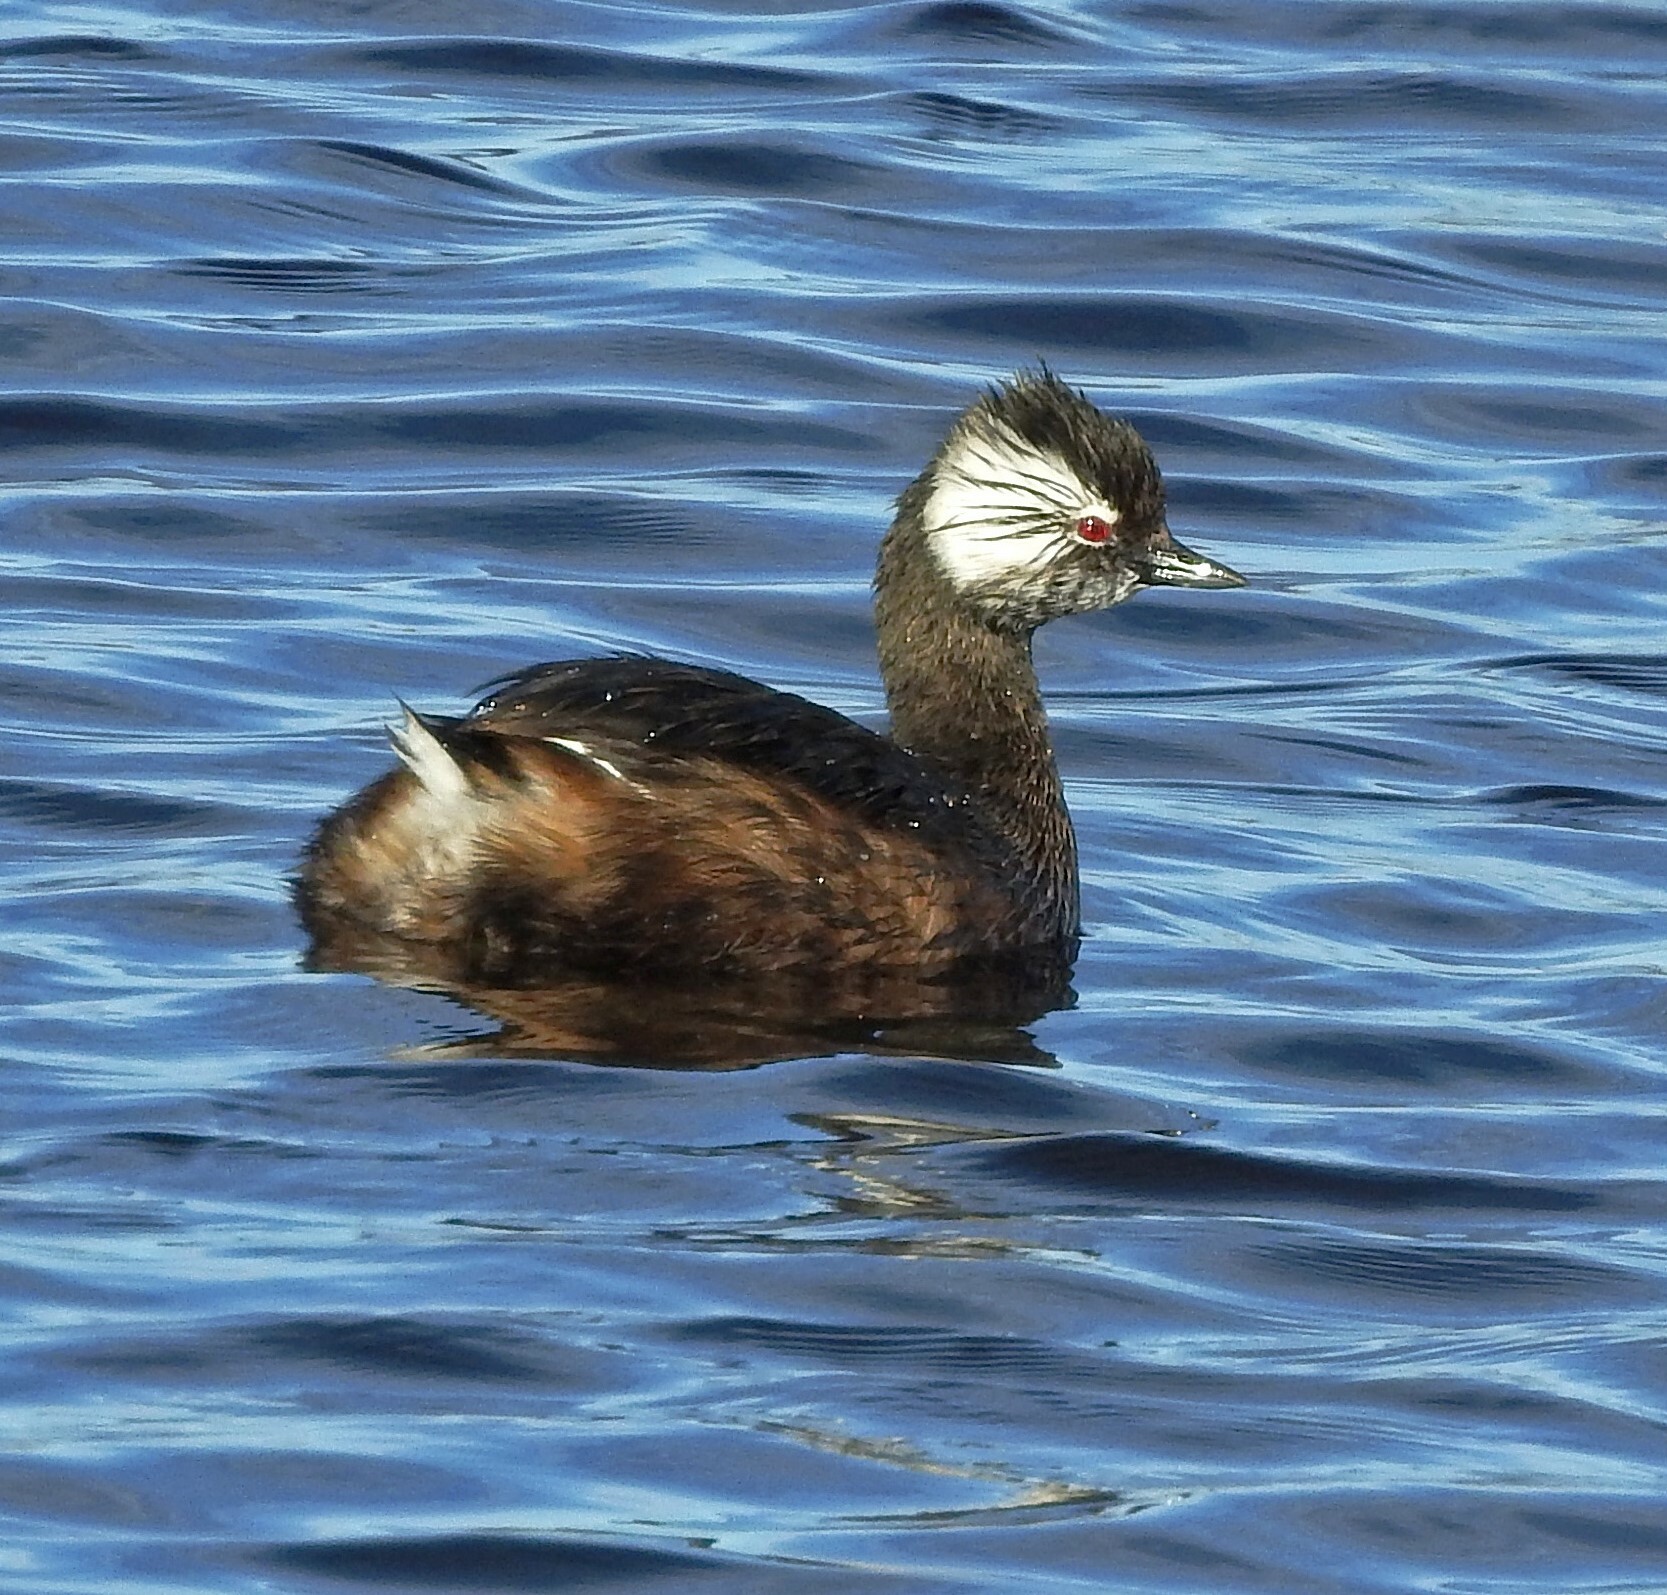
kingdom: Animalia
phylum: Chordata
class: Aves
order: Podicipediformes
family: Podicipedidae
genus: Rollandia
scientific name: Rollandia rolland
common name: White-tufted grebe
